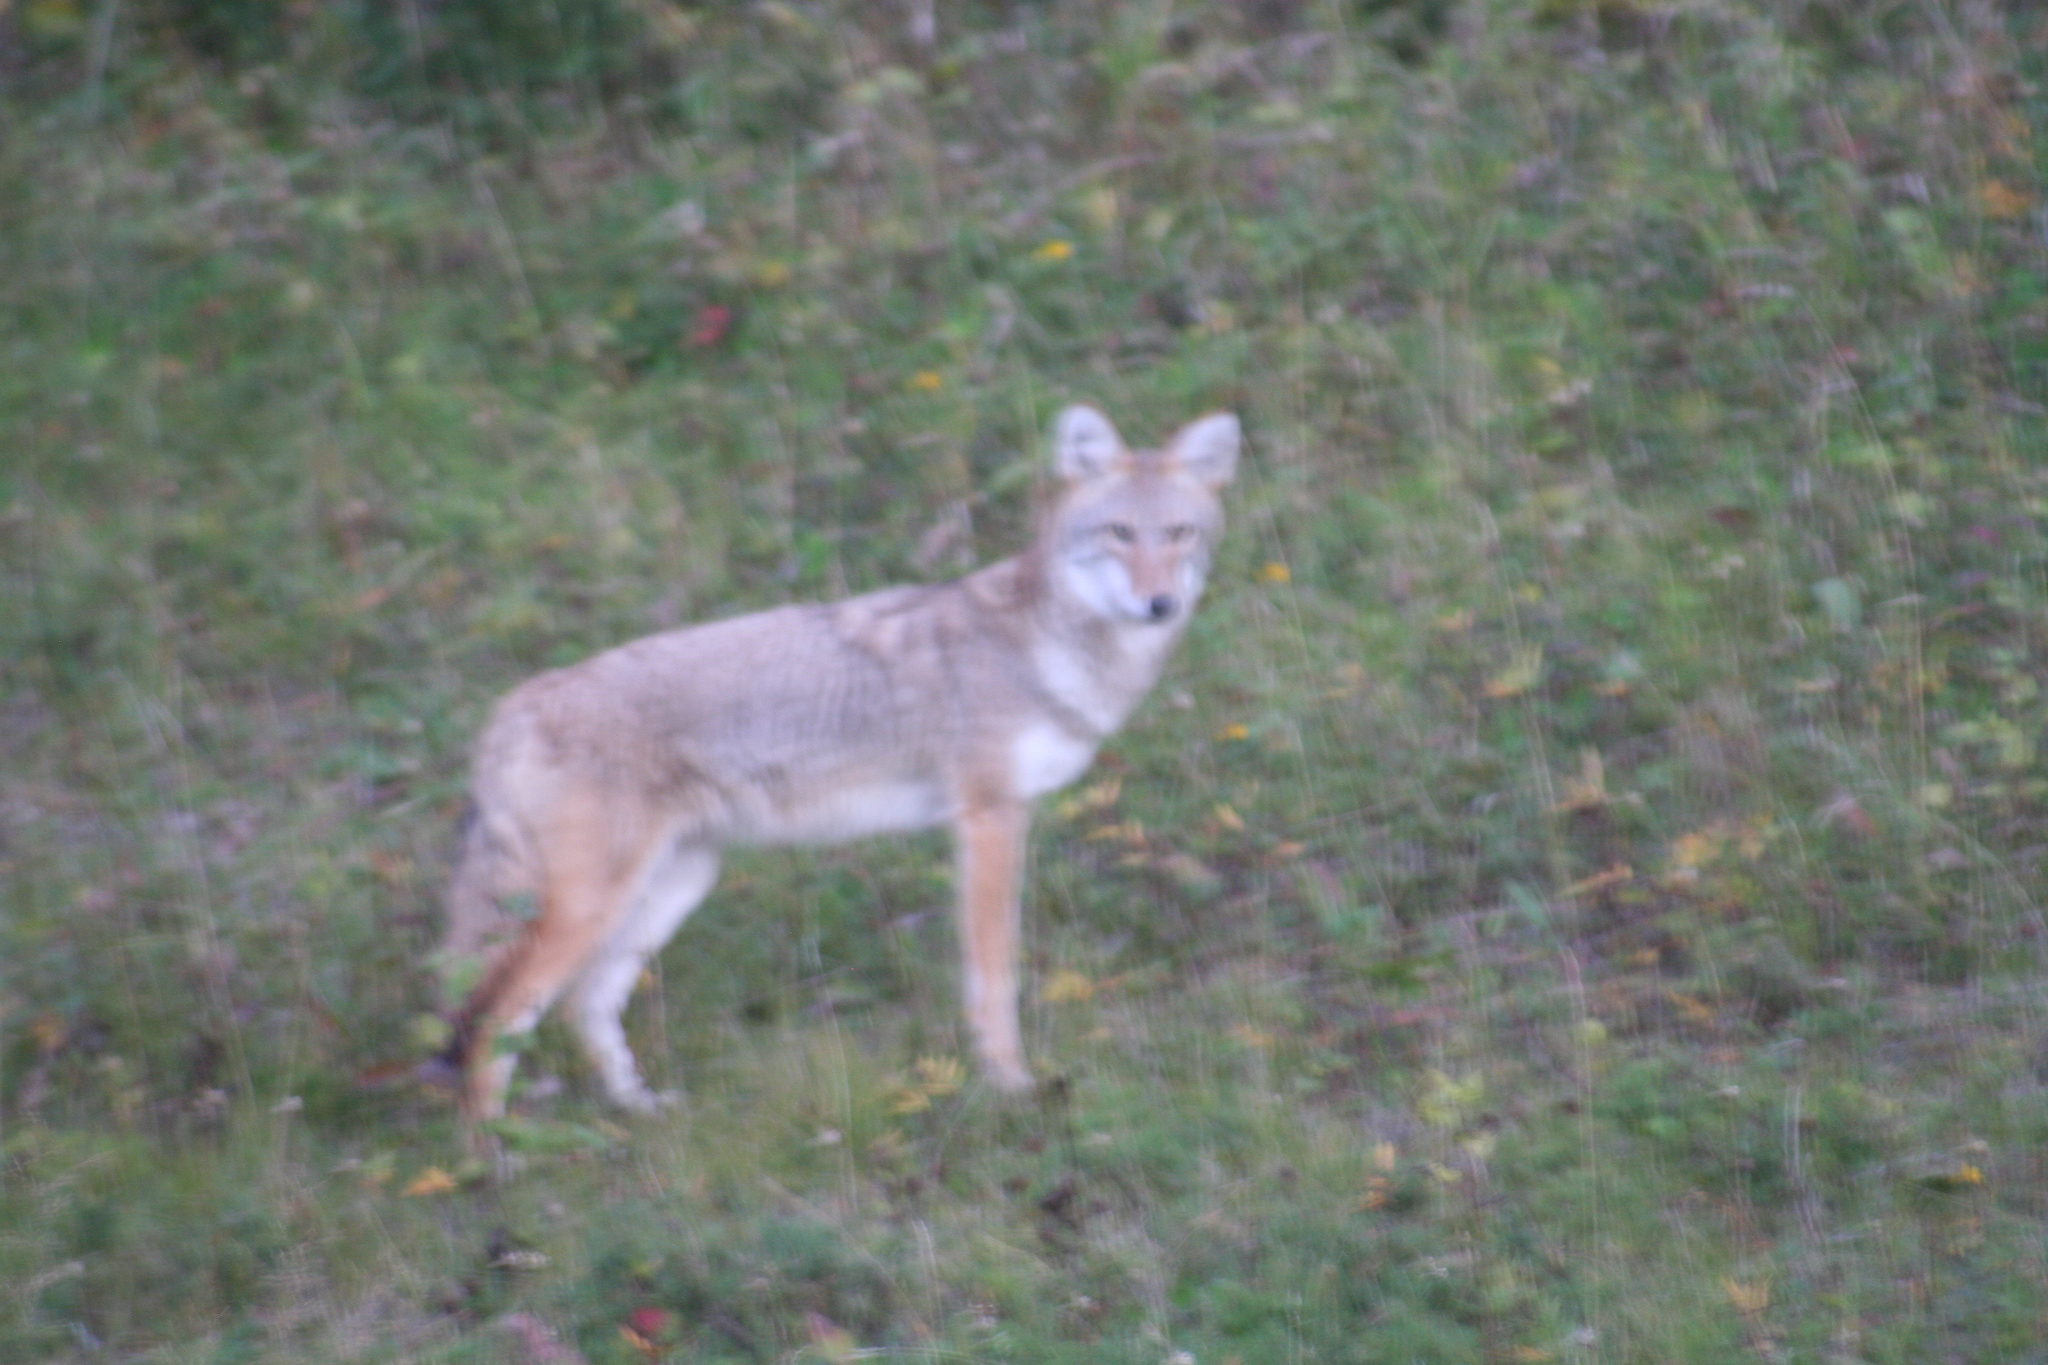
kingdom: Animalia
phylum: Chordata
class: Mammalia
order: Carnivora
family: Canidae
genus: Canis
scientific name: Canis latrans
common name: Coyote
